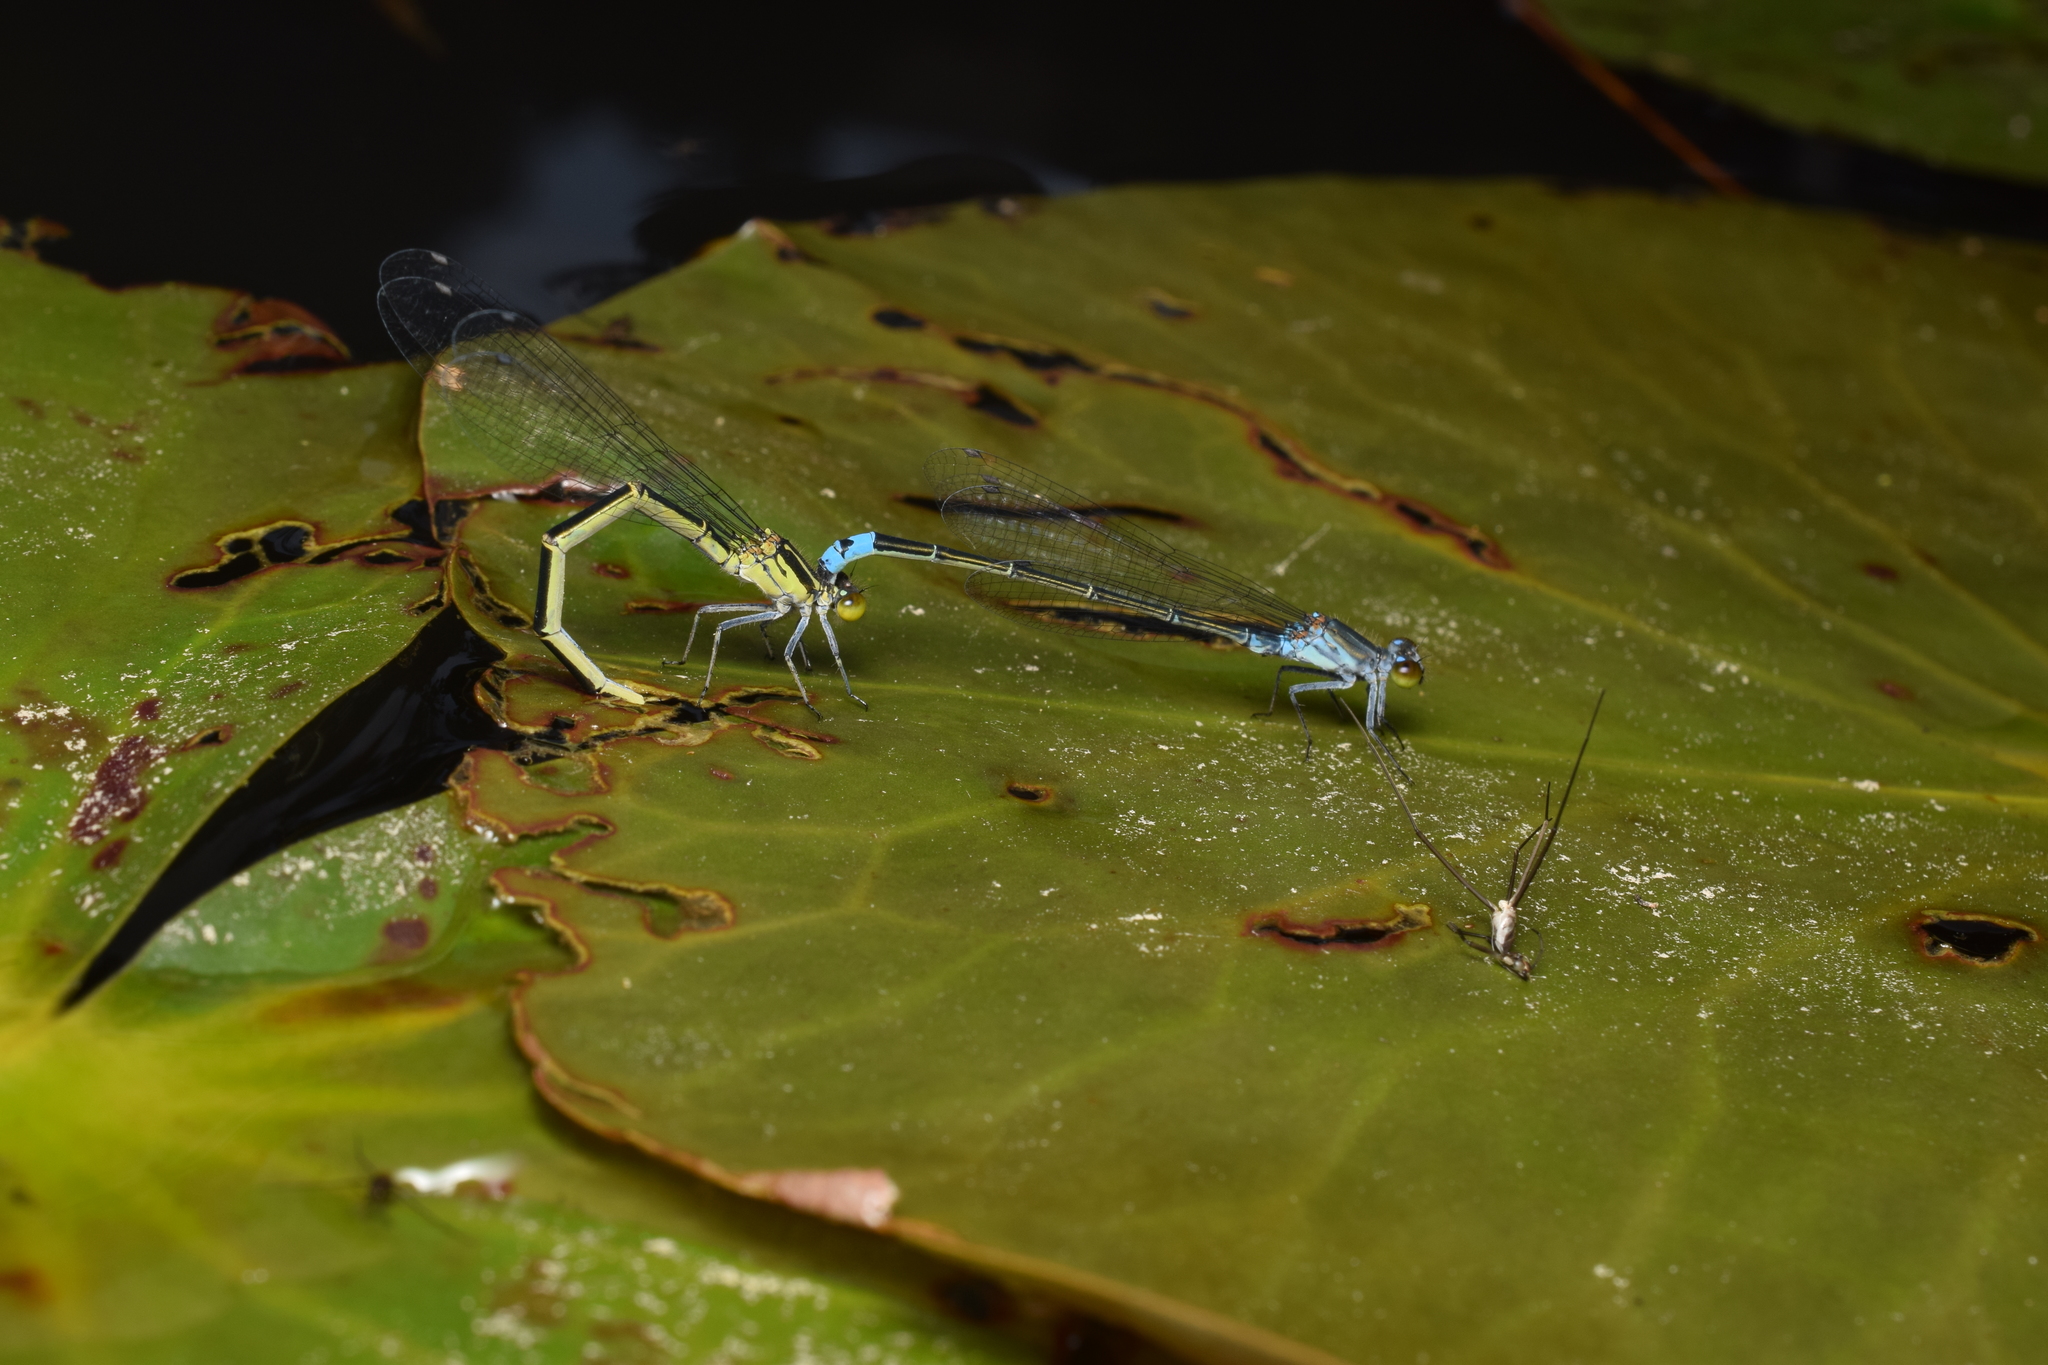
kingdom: Animalia
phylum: Arthropoda
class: Insecta
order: Odonata
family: Coenagrionidae
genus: Paracercion
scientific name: Paracercion calamorum
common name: Dusky lilysquatter
